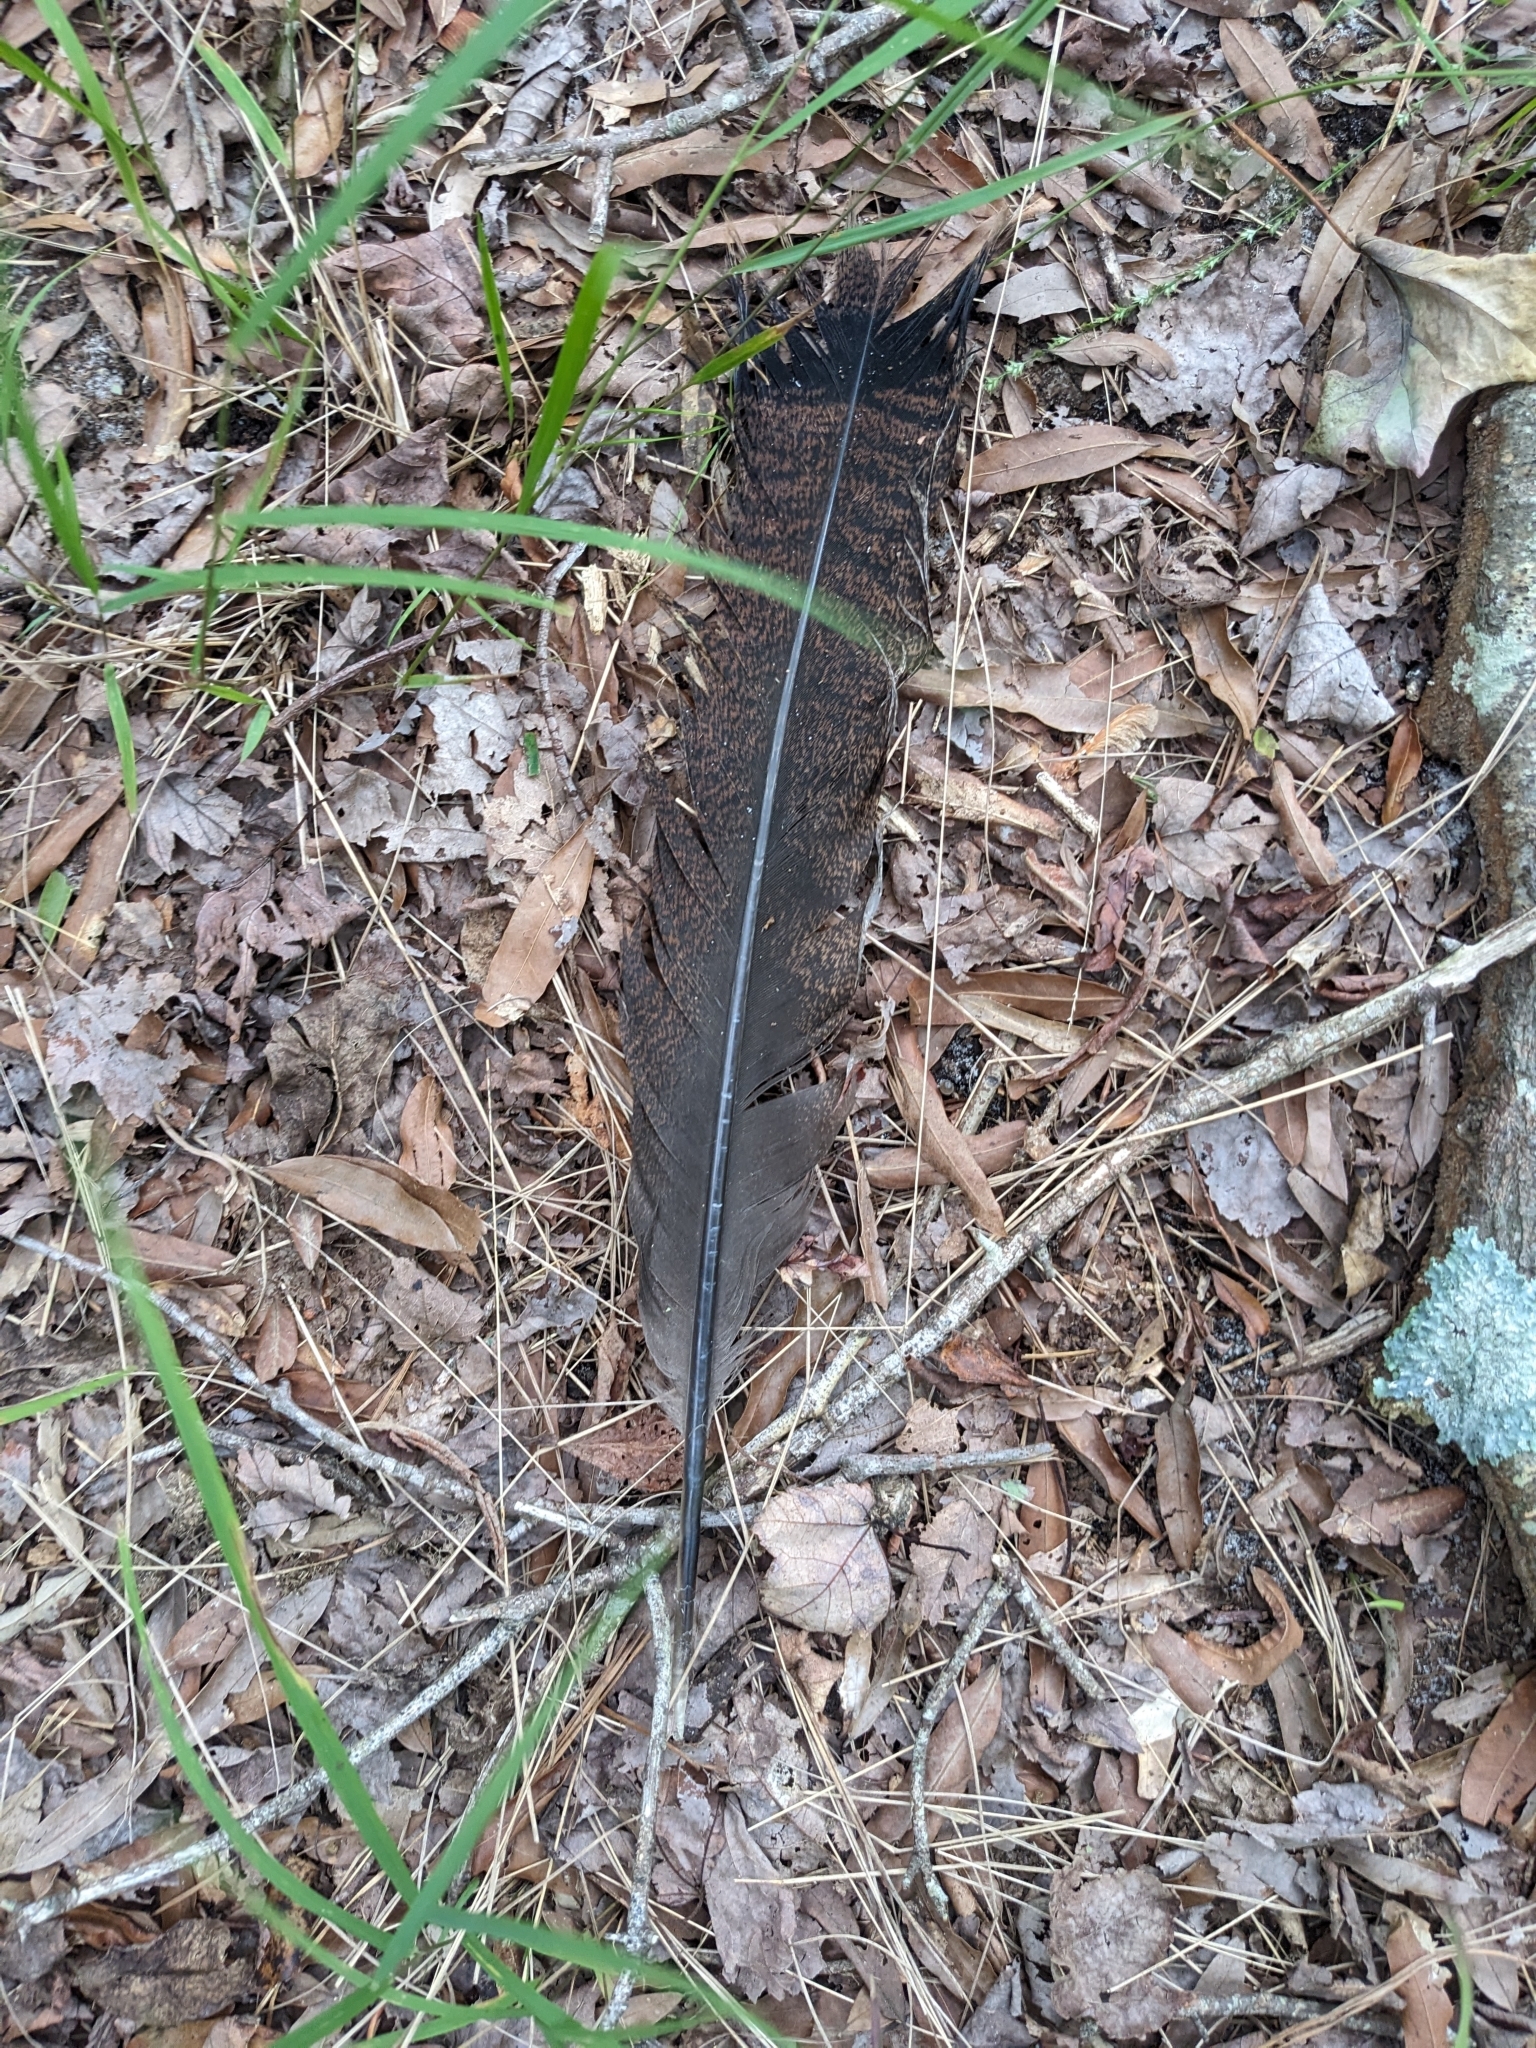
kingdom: Animalia
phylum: Chordata
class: Aves
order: Galliformes
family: Phasianidae
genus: Meleagris
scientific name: Meleagris gallopavo
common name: Wild turkey
